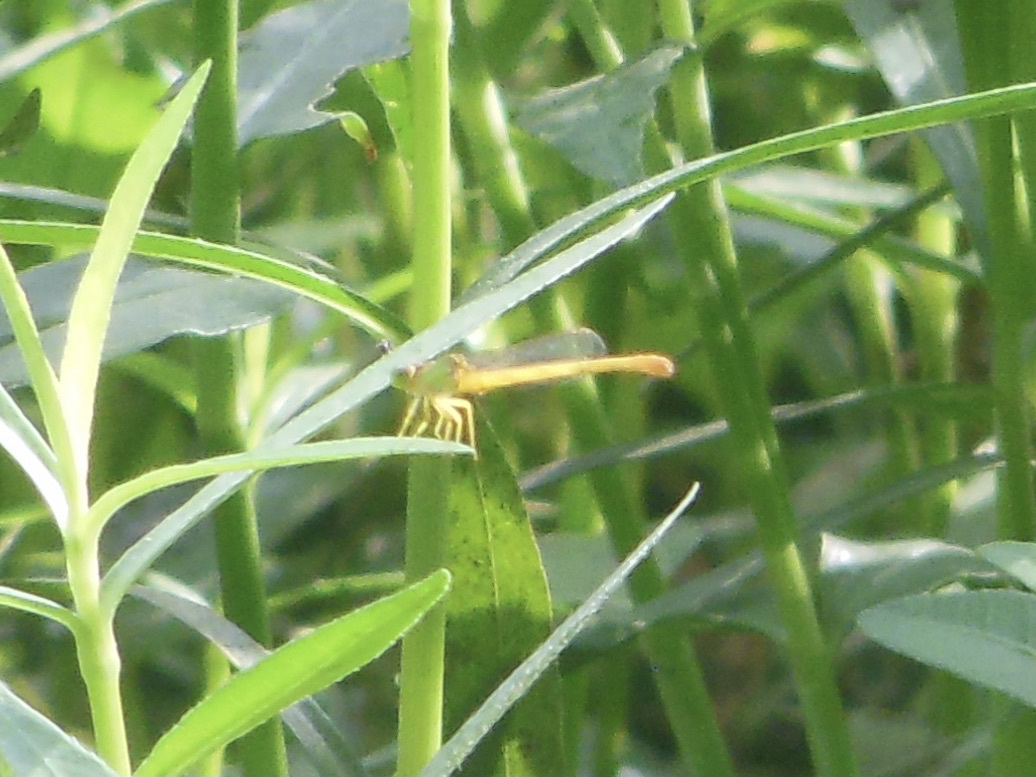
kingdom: Animalia
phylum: Arthropoda
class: Insecta
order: Odonata
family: Coenagrionidae
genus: Ceriagrion
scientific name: Ceriagrion coromandelianum
